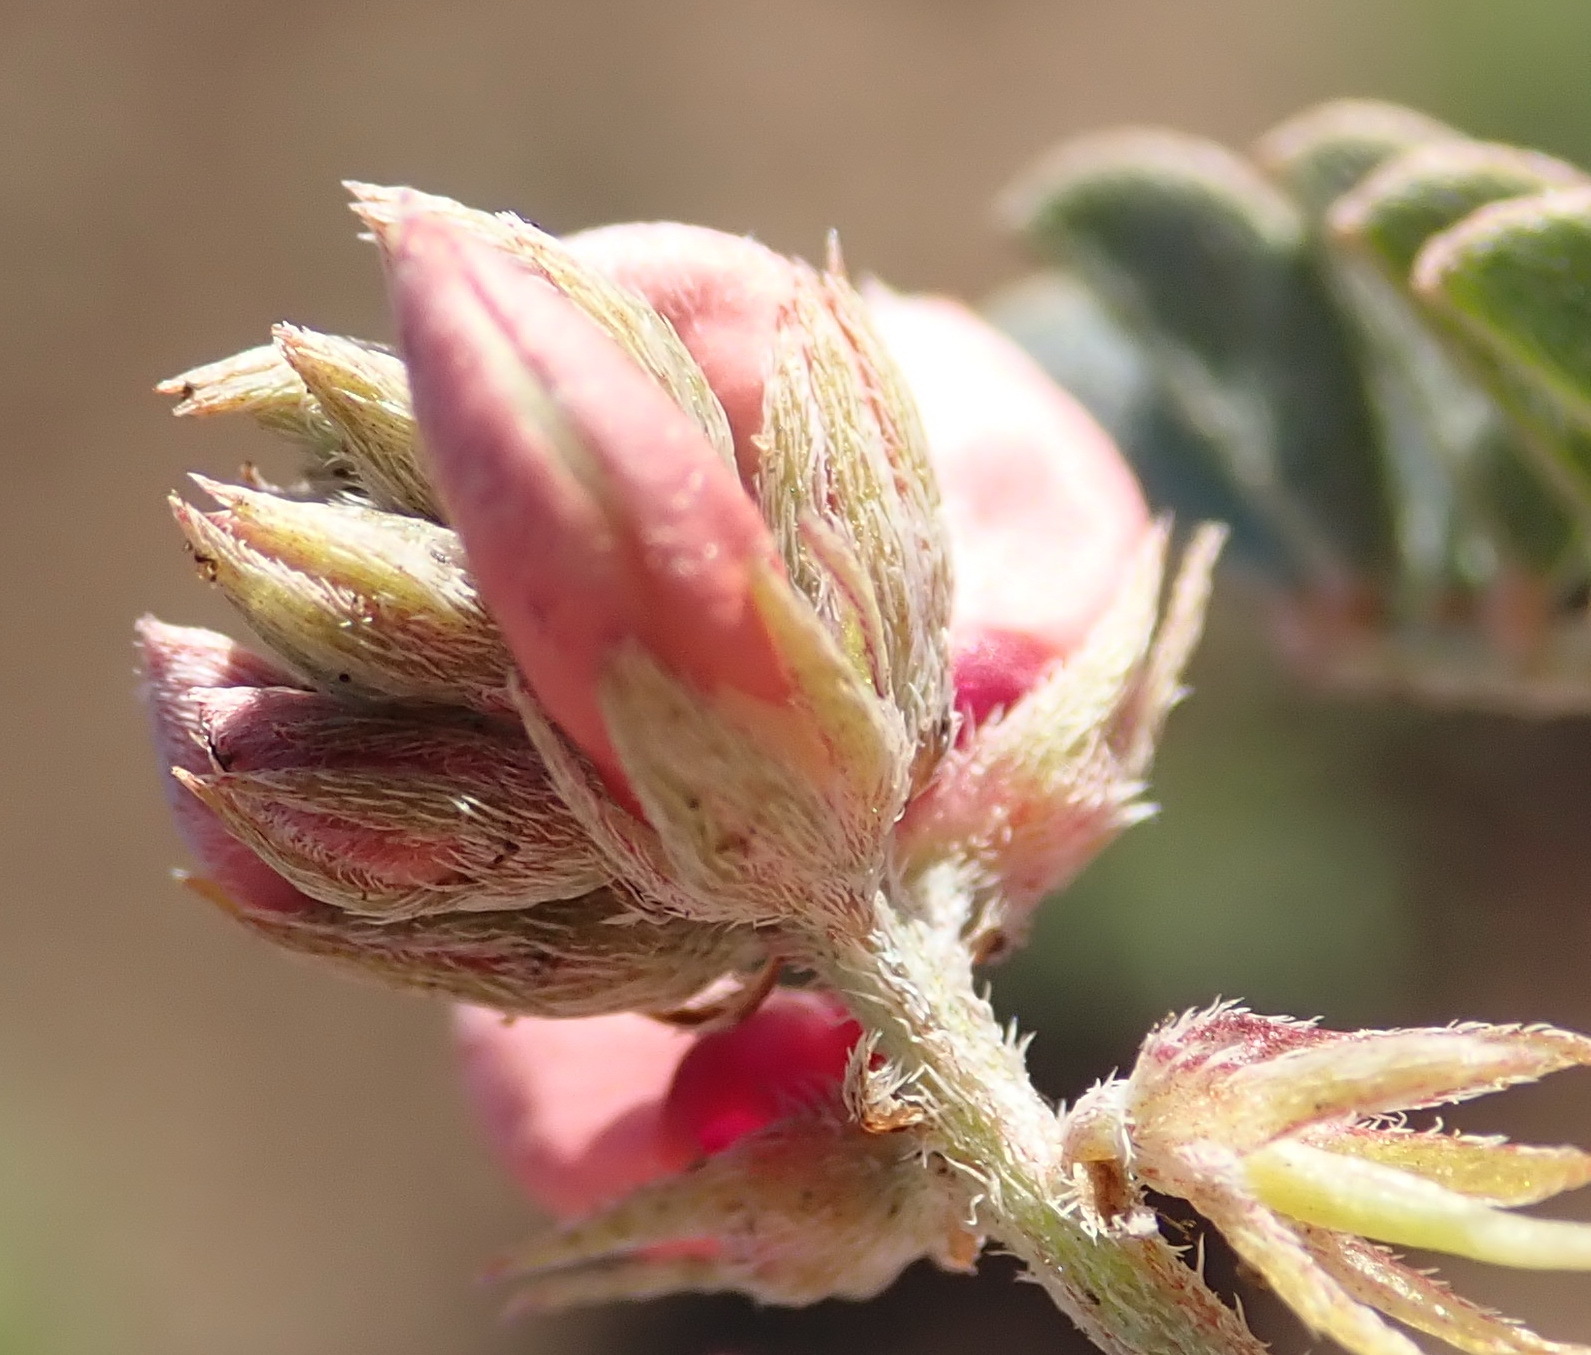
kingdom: Plantae
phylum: Tracheophyta
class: Magnoliopsida
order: Fabales
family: Fabaceae
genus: Indigofera
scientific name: Indigofera alternans
